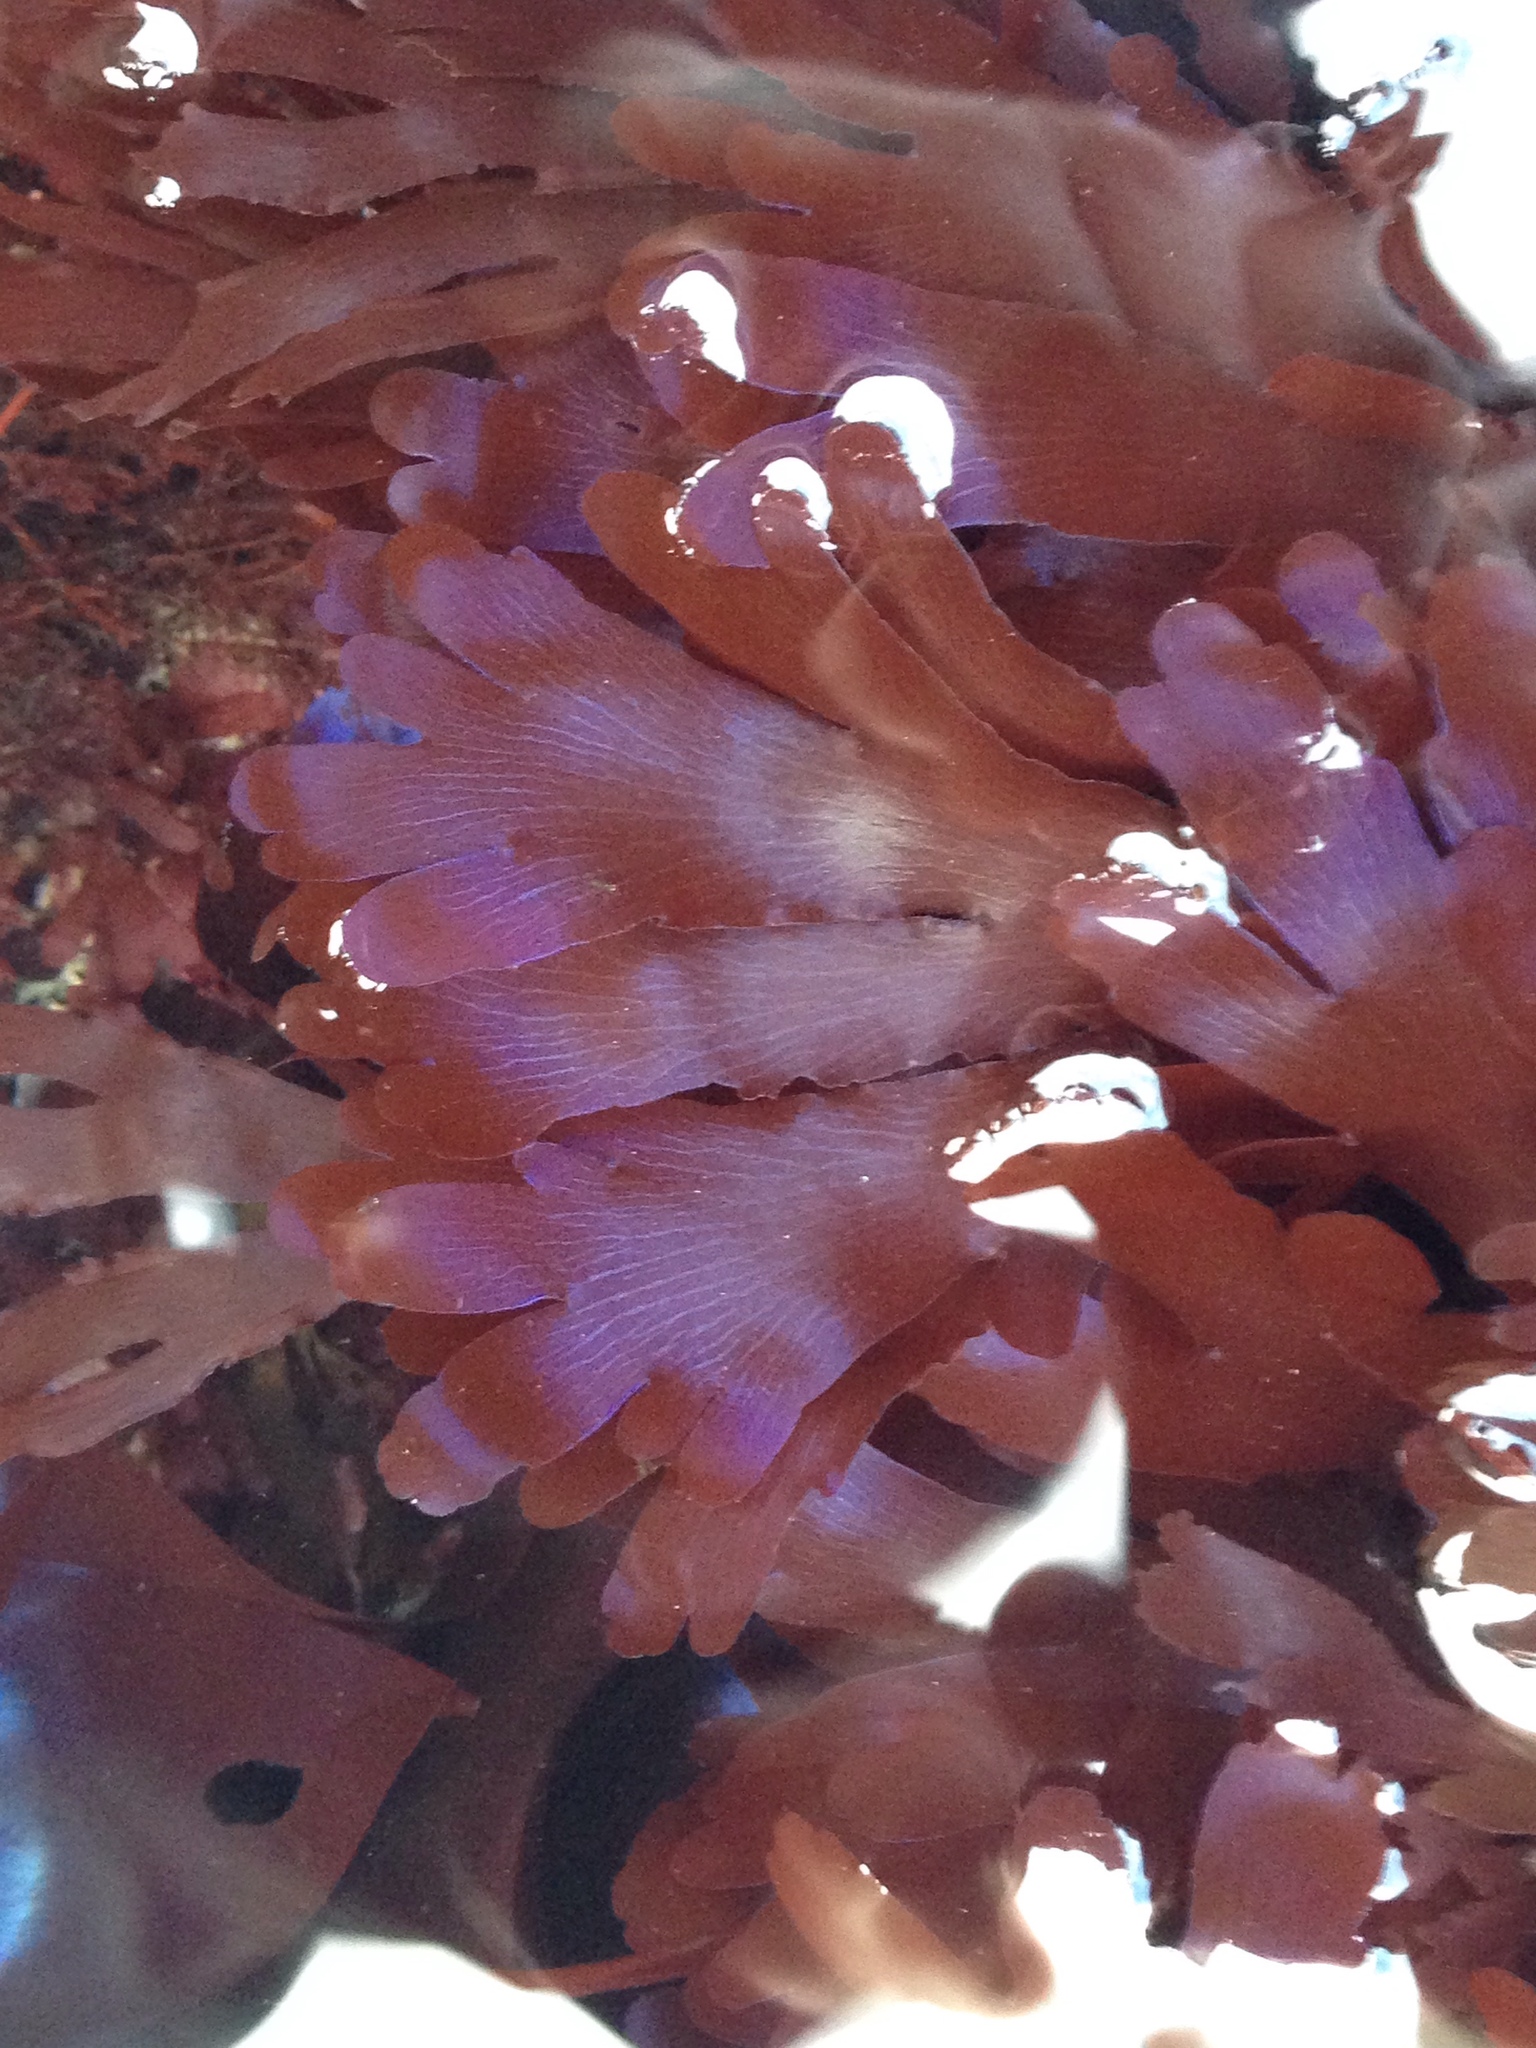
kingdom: Plantae
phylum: Rhodophyta
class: Florideophyceae
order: Ceramiales
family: Delesseriaceae
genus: Hymenena
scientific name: Hymenena flabelligera
